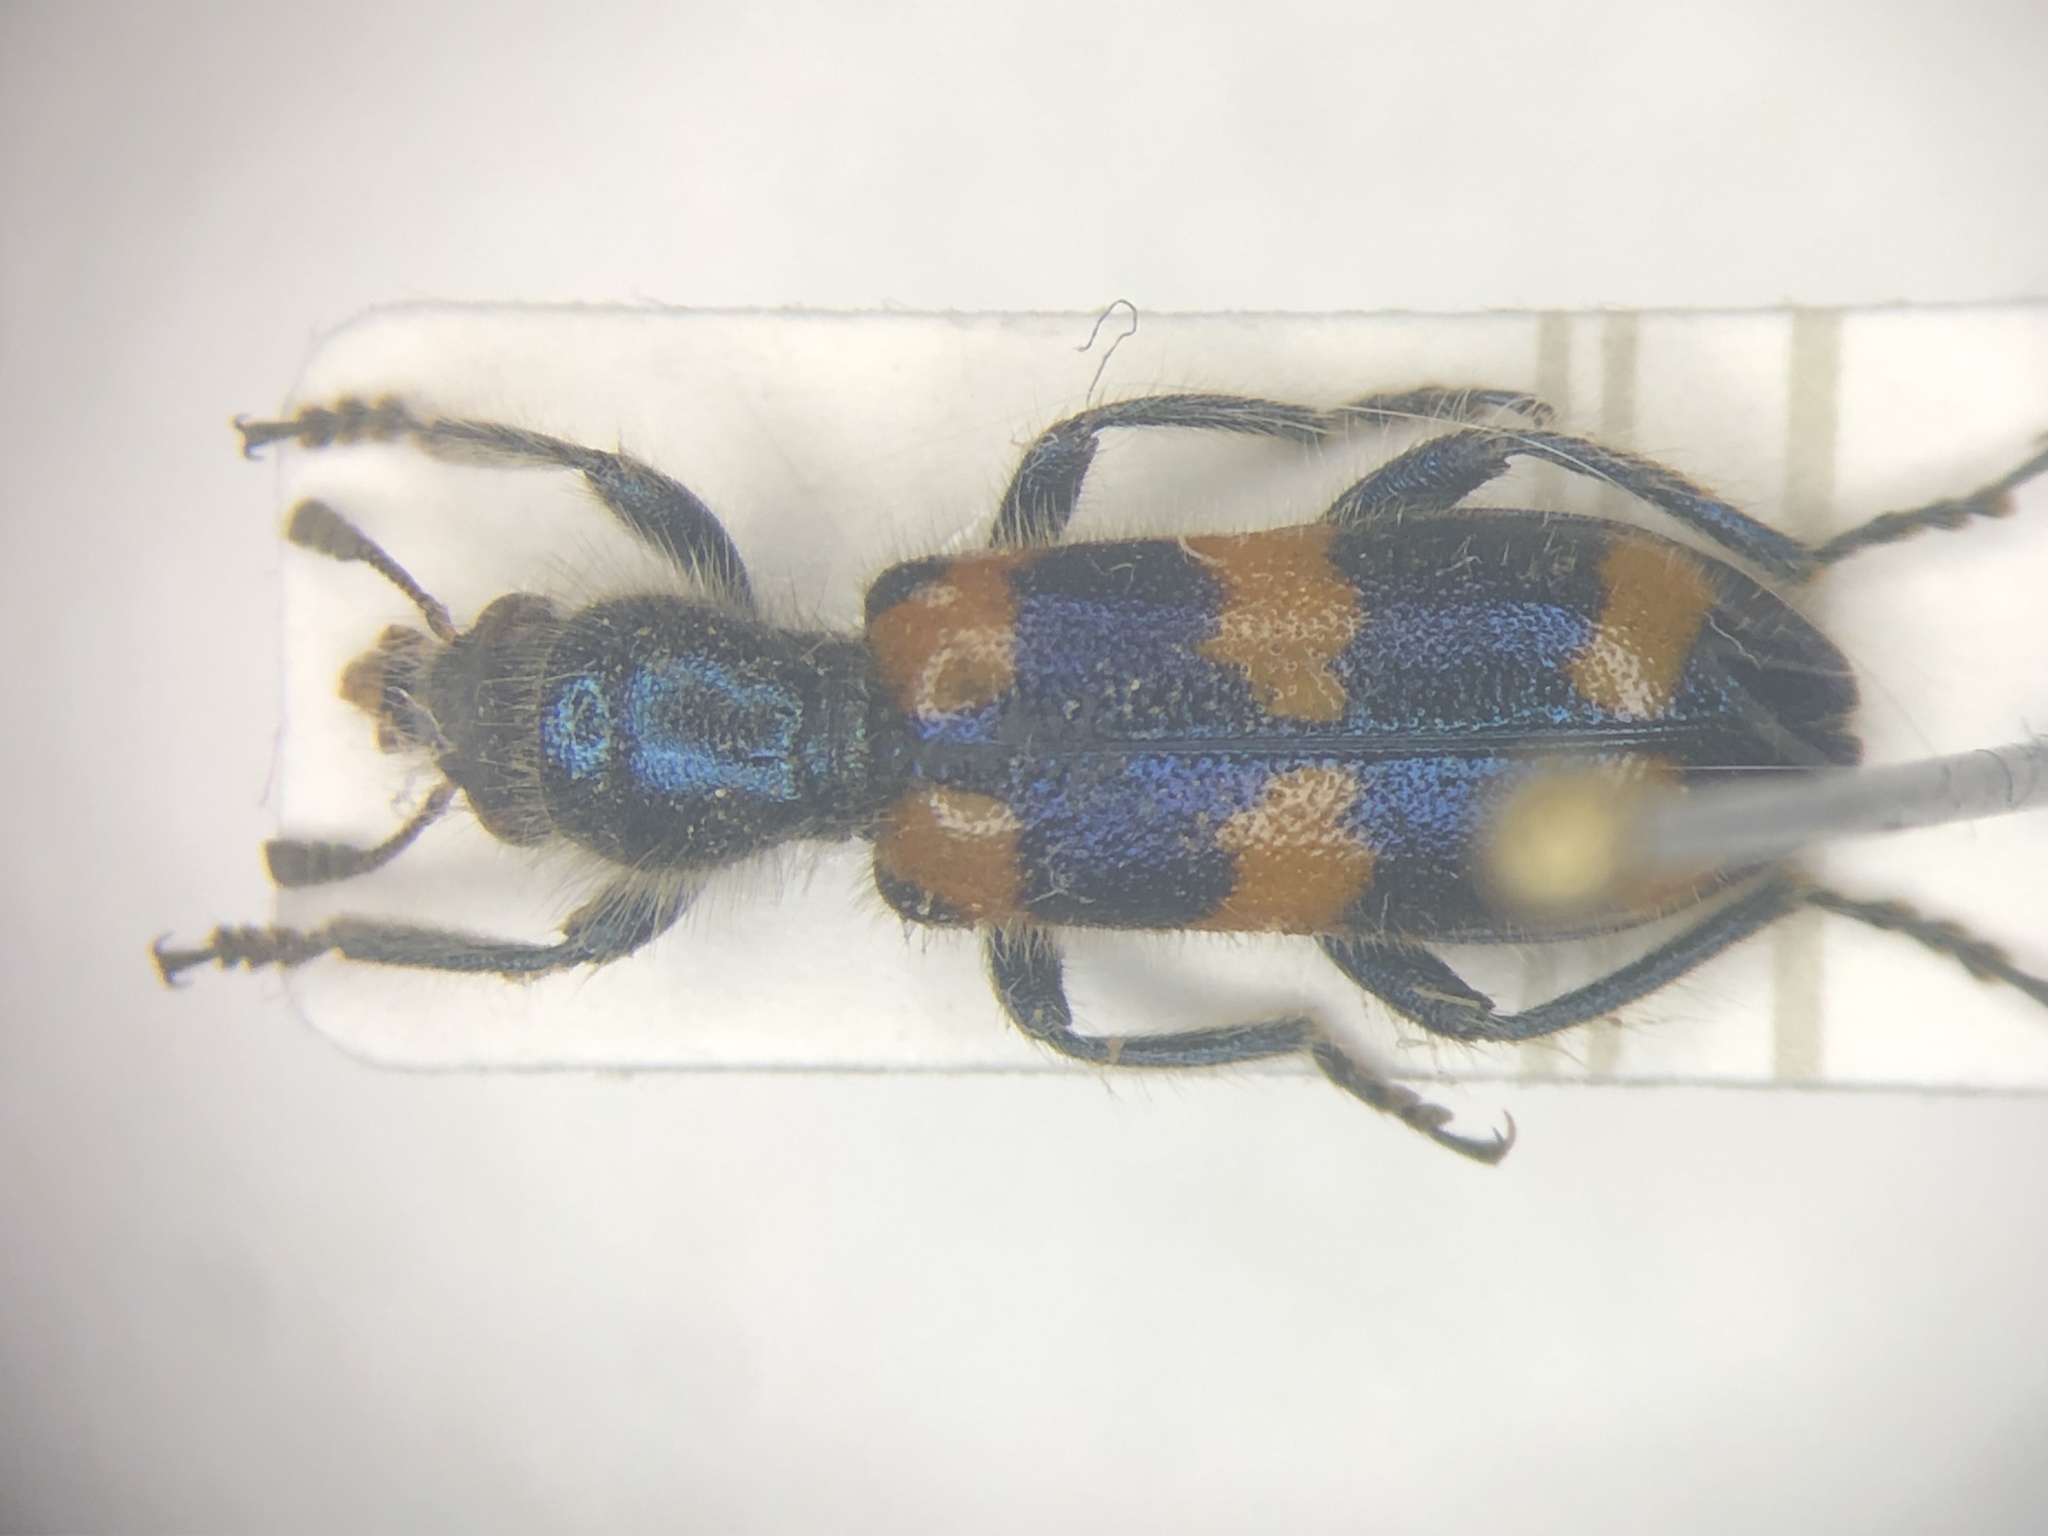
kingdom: Animalia
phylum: Arthropoda
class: Insecta
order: Coleoptera
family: Cleridae
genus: Trichodes
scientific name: Trichodes nutalli
